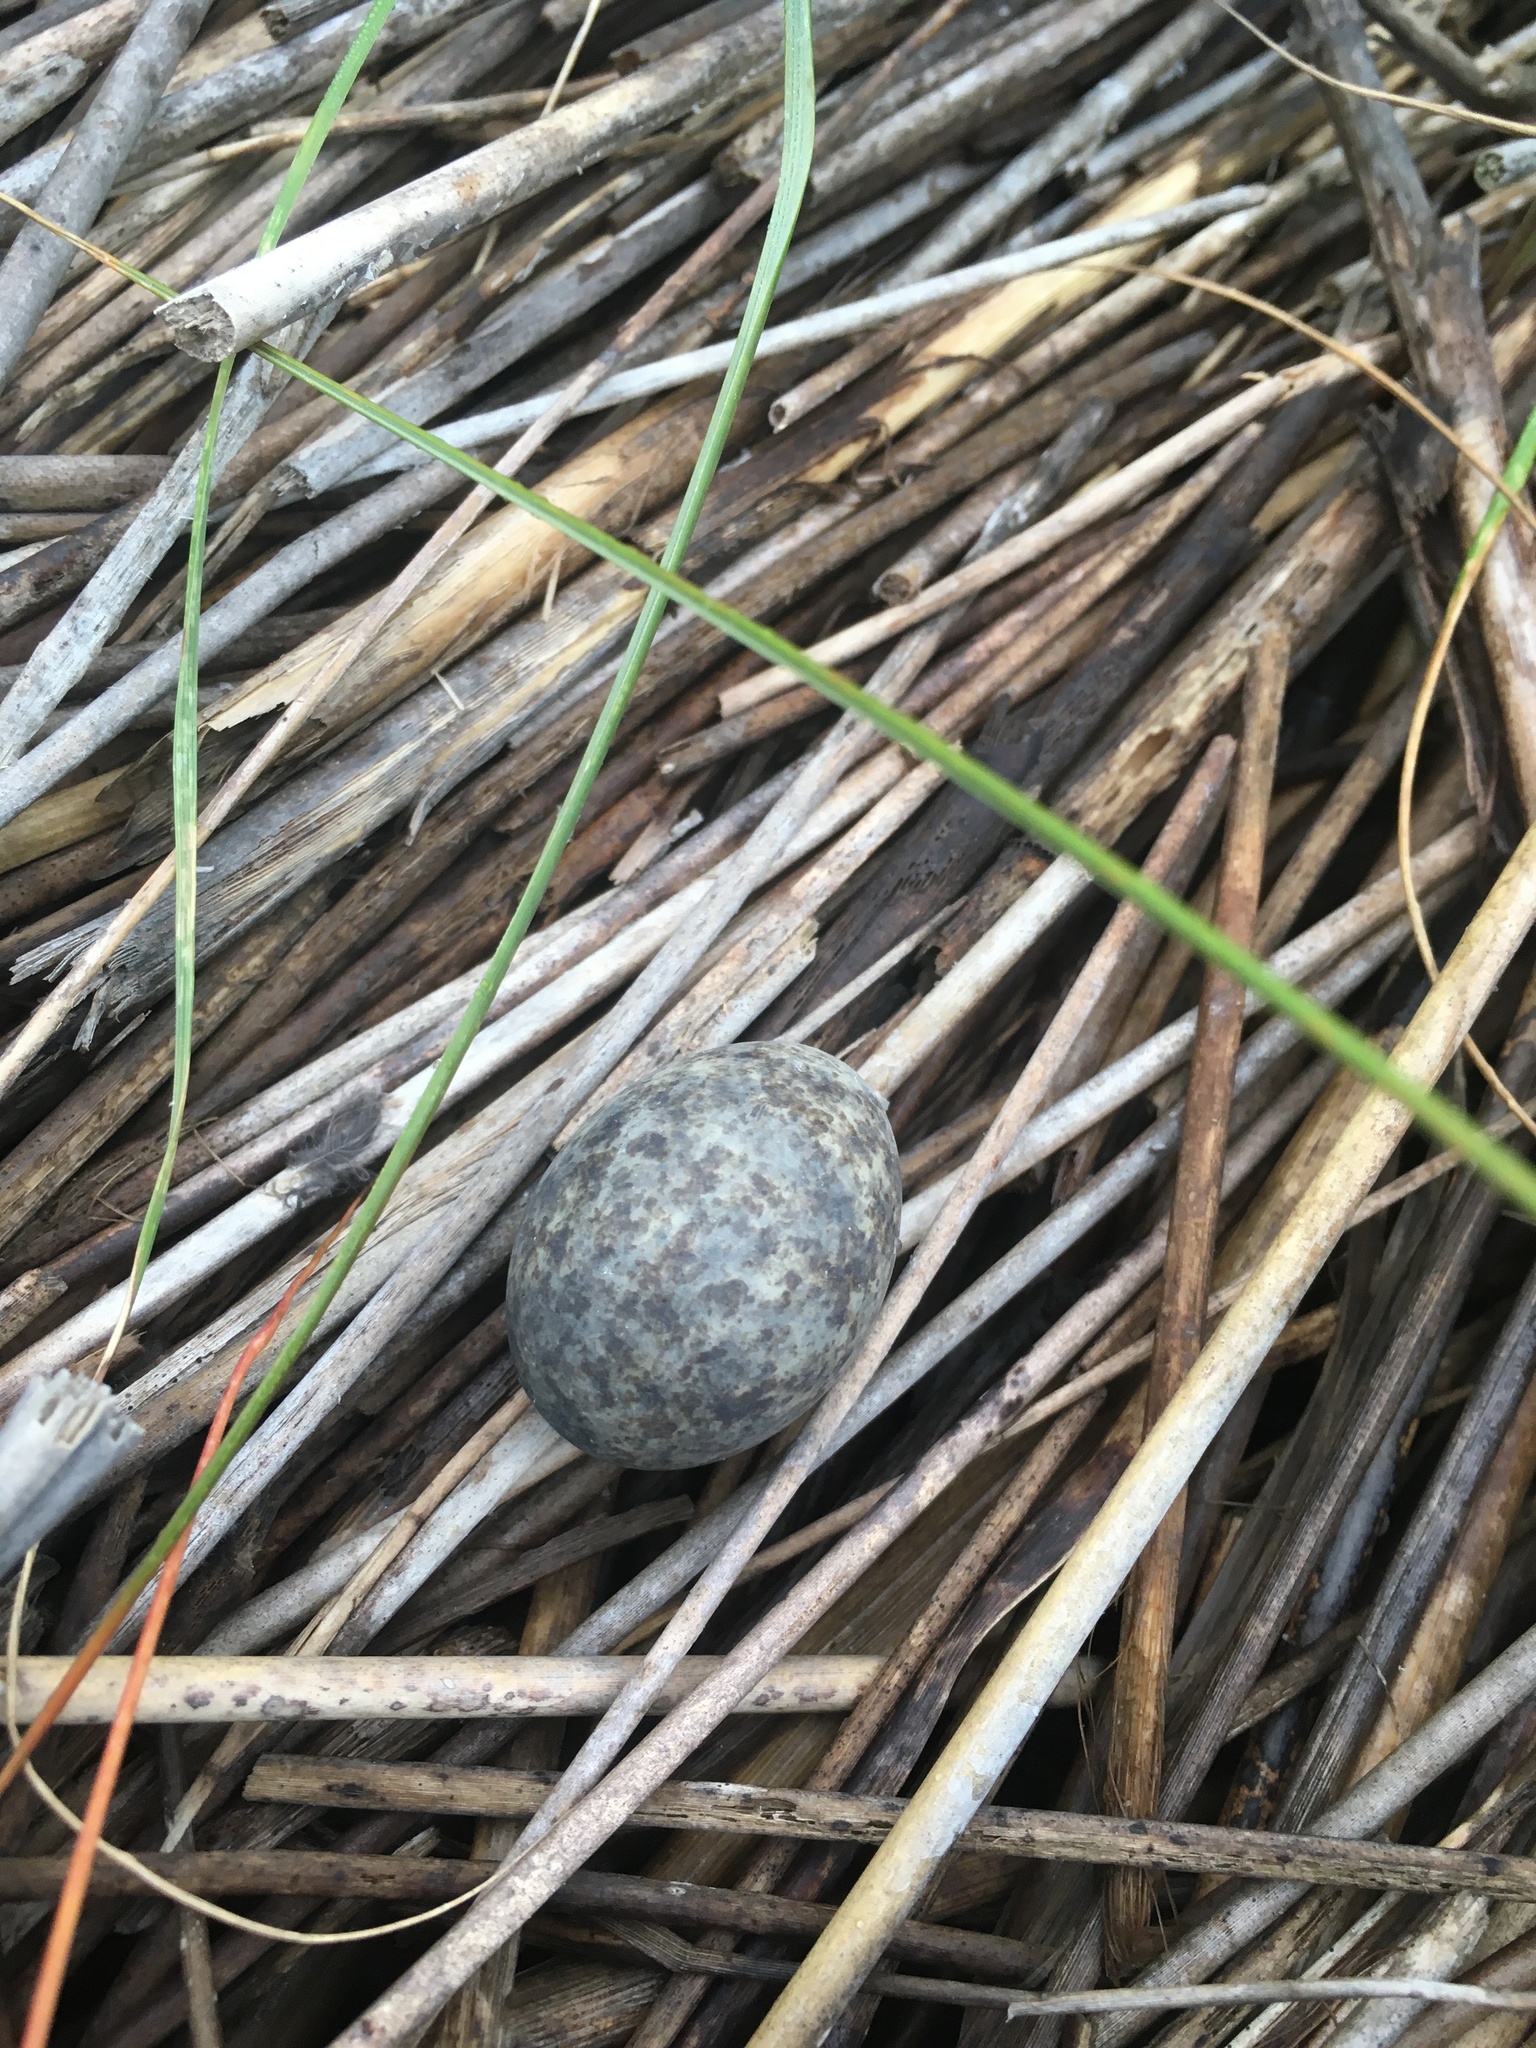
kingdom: Animalia
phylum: Chordata
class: Aves
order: Caprimulgiformes
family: Caprimulgidae
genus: Chordeiles
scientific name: Chordeiles minor
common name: Common nighthawk
